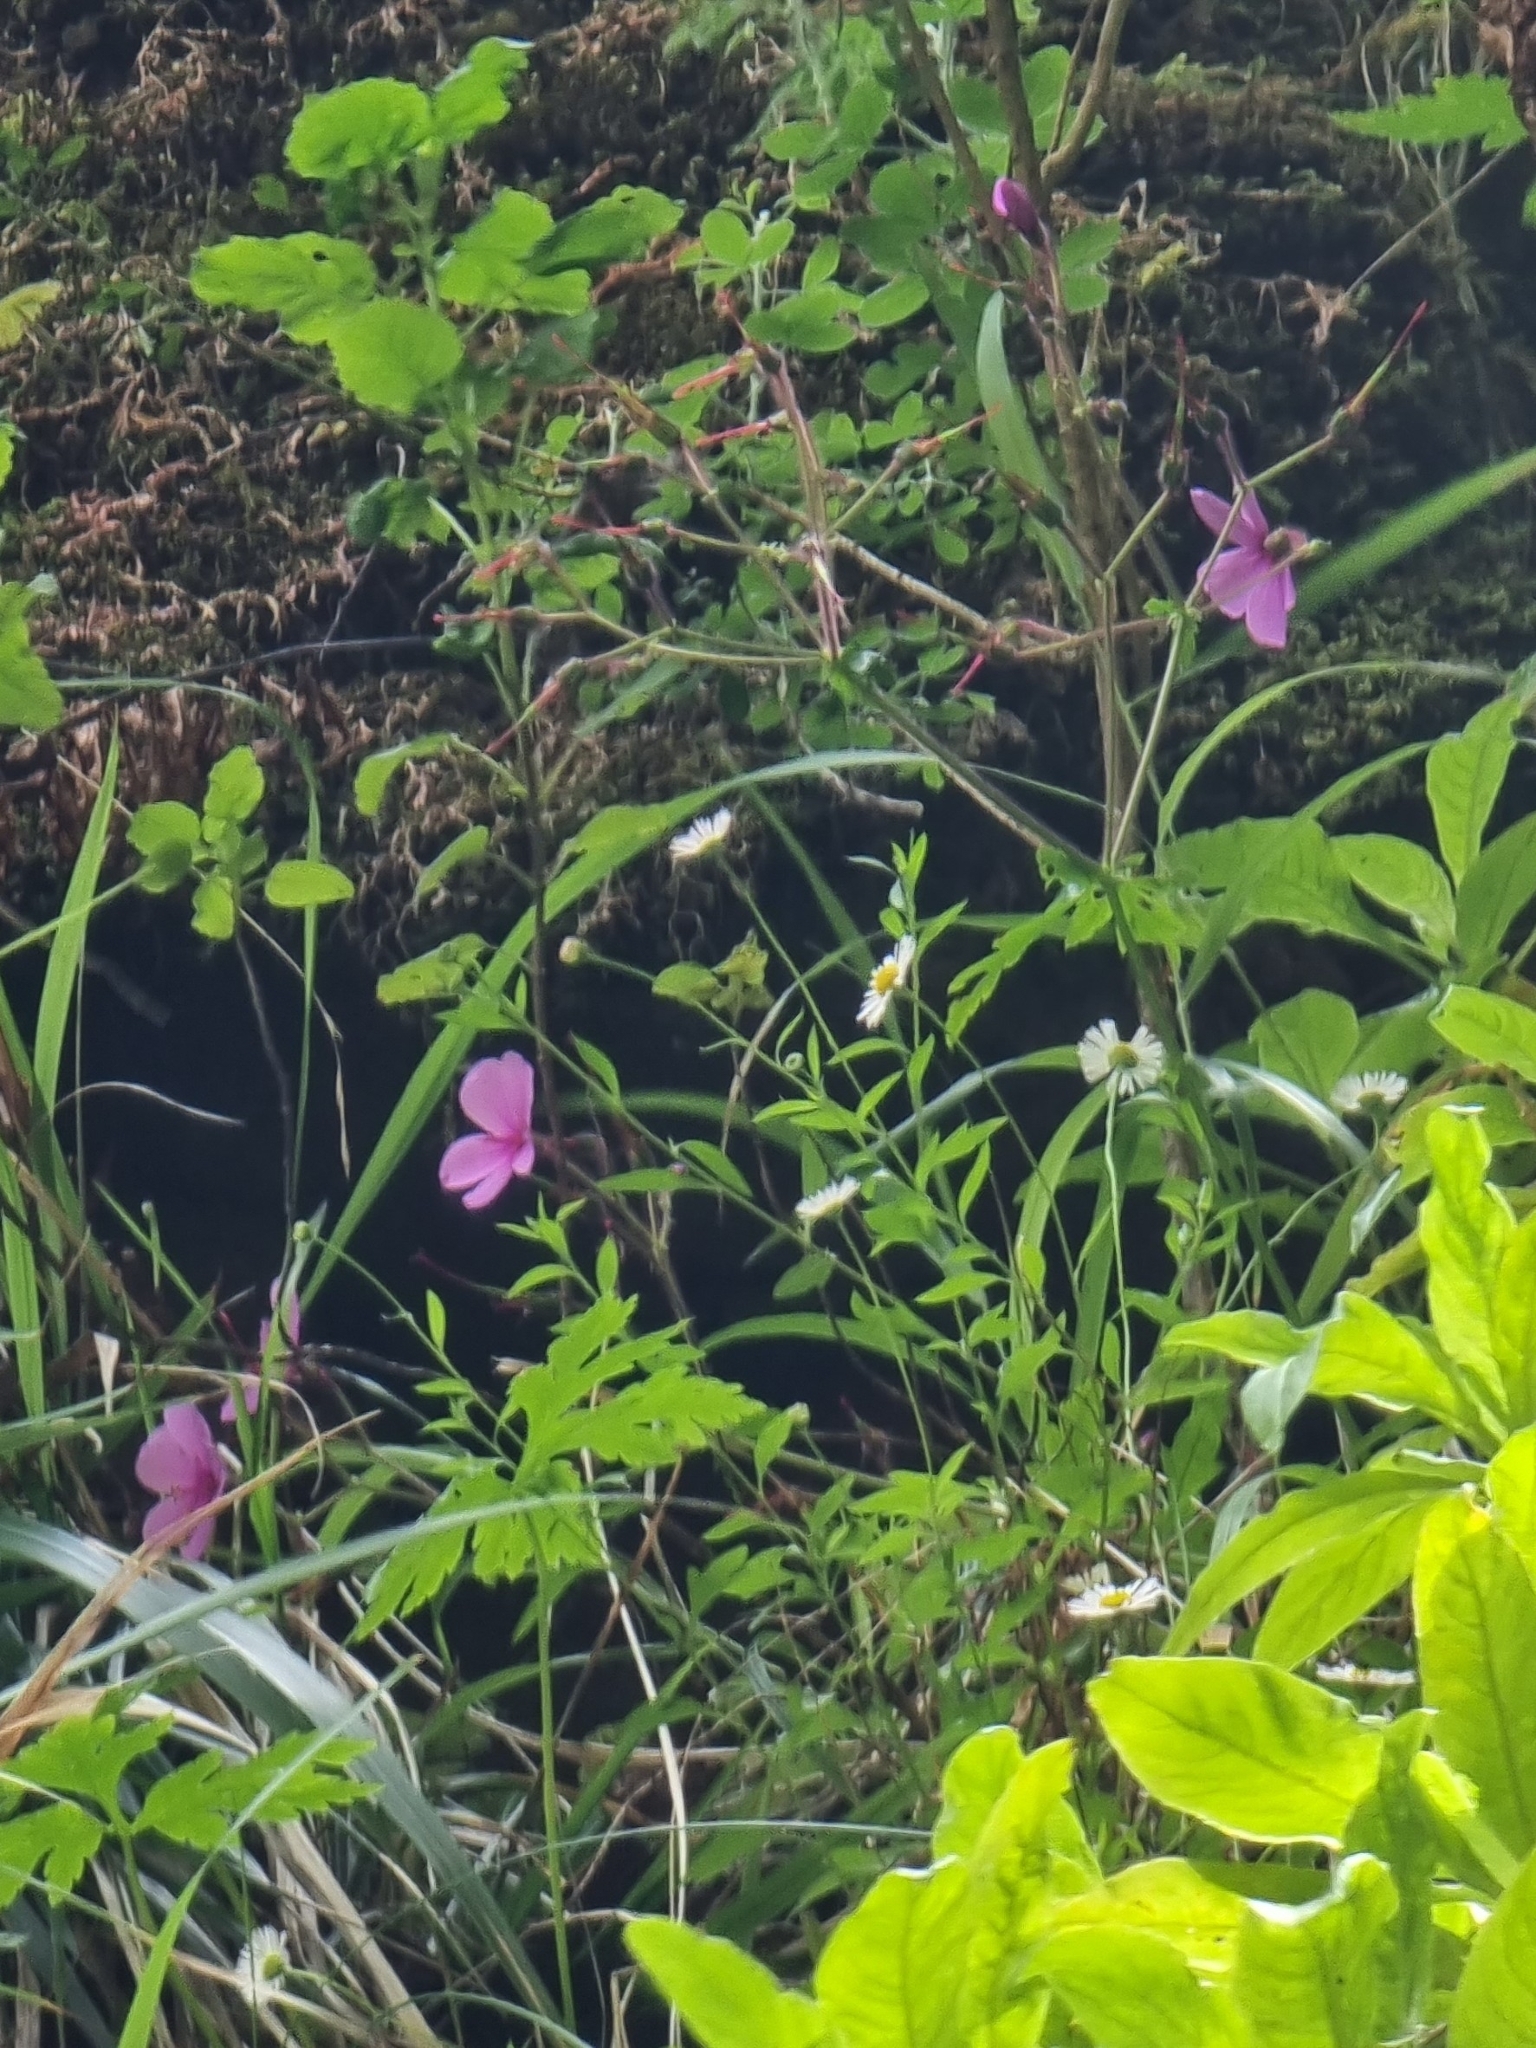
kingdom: Plantae
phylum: Tracheophyta
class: Magnoliopsida
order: Geraniales
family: Geraniaceae
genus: Geranium
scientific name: Geranium palmatum
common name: Canary island geranium
